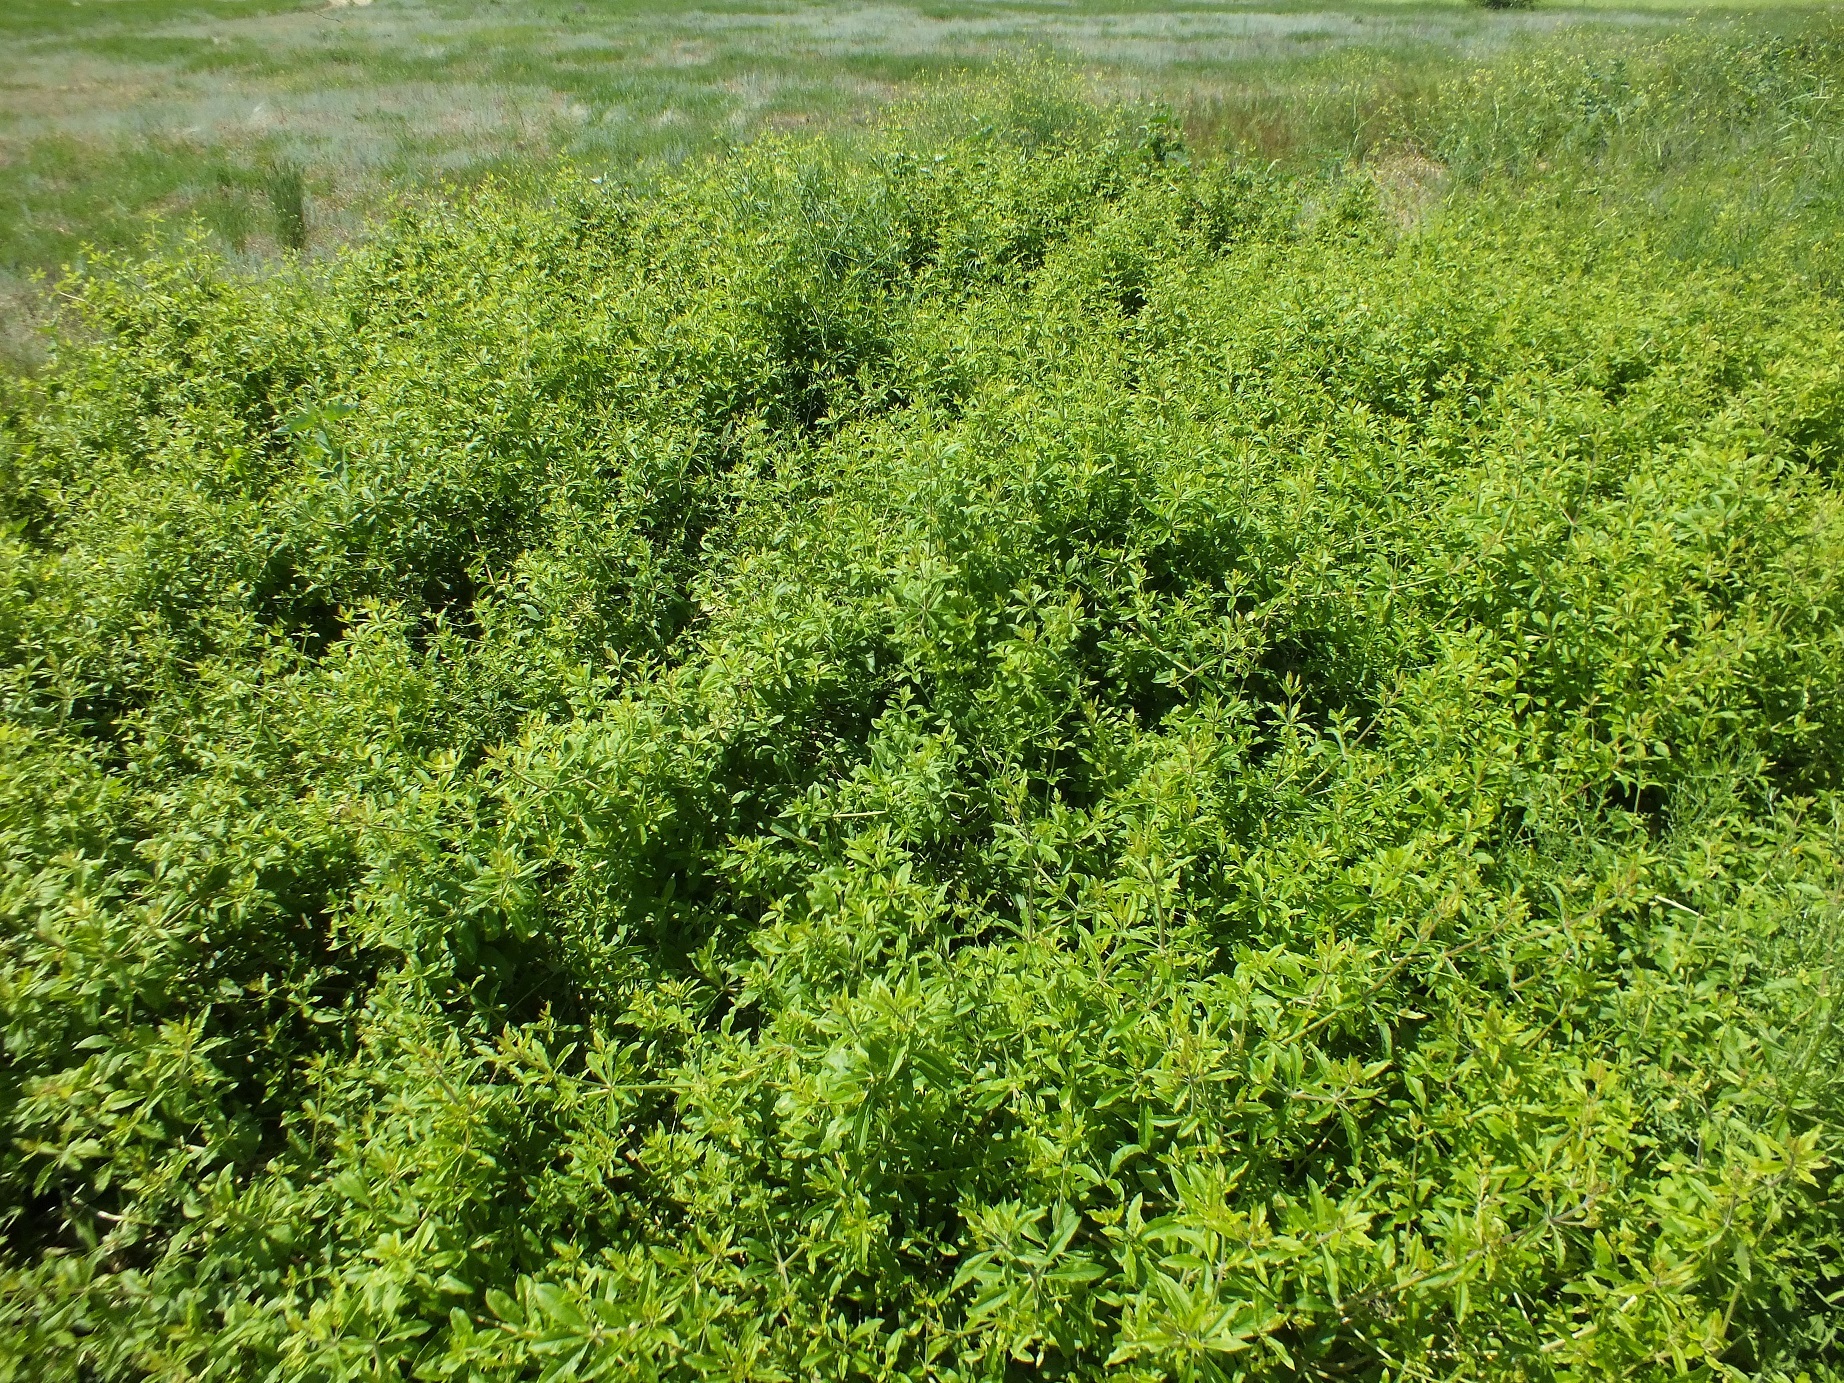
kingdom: Plantae
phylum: Tracheophyta
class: Magnoliopsida
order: Gentianales
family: Rubiaceae
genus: Rubia
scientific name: Rubia tinctorum
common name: Dyer's madder
